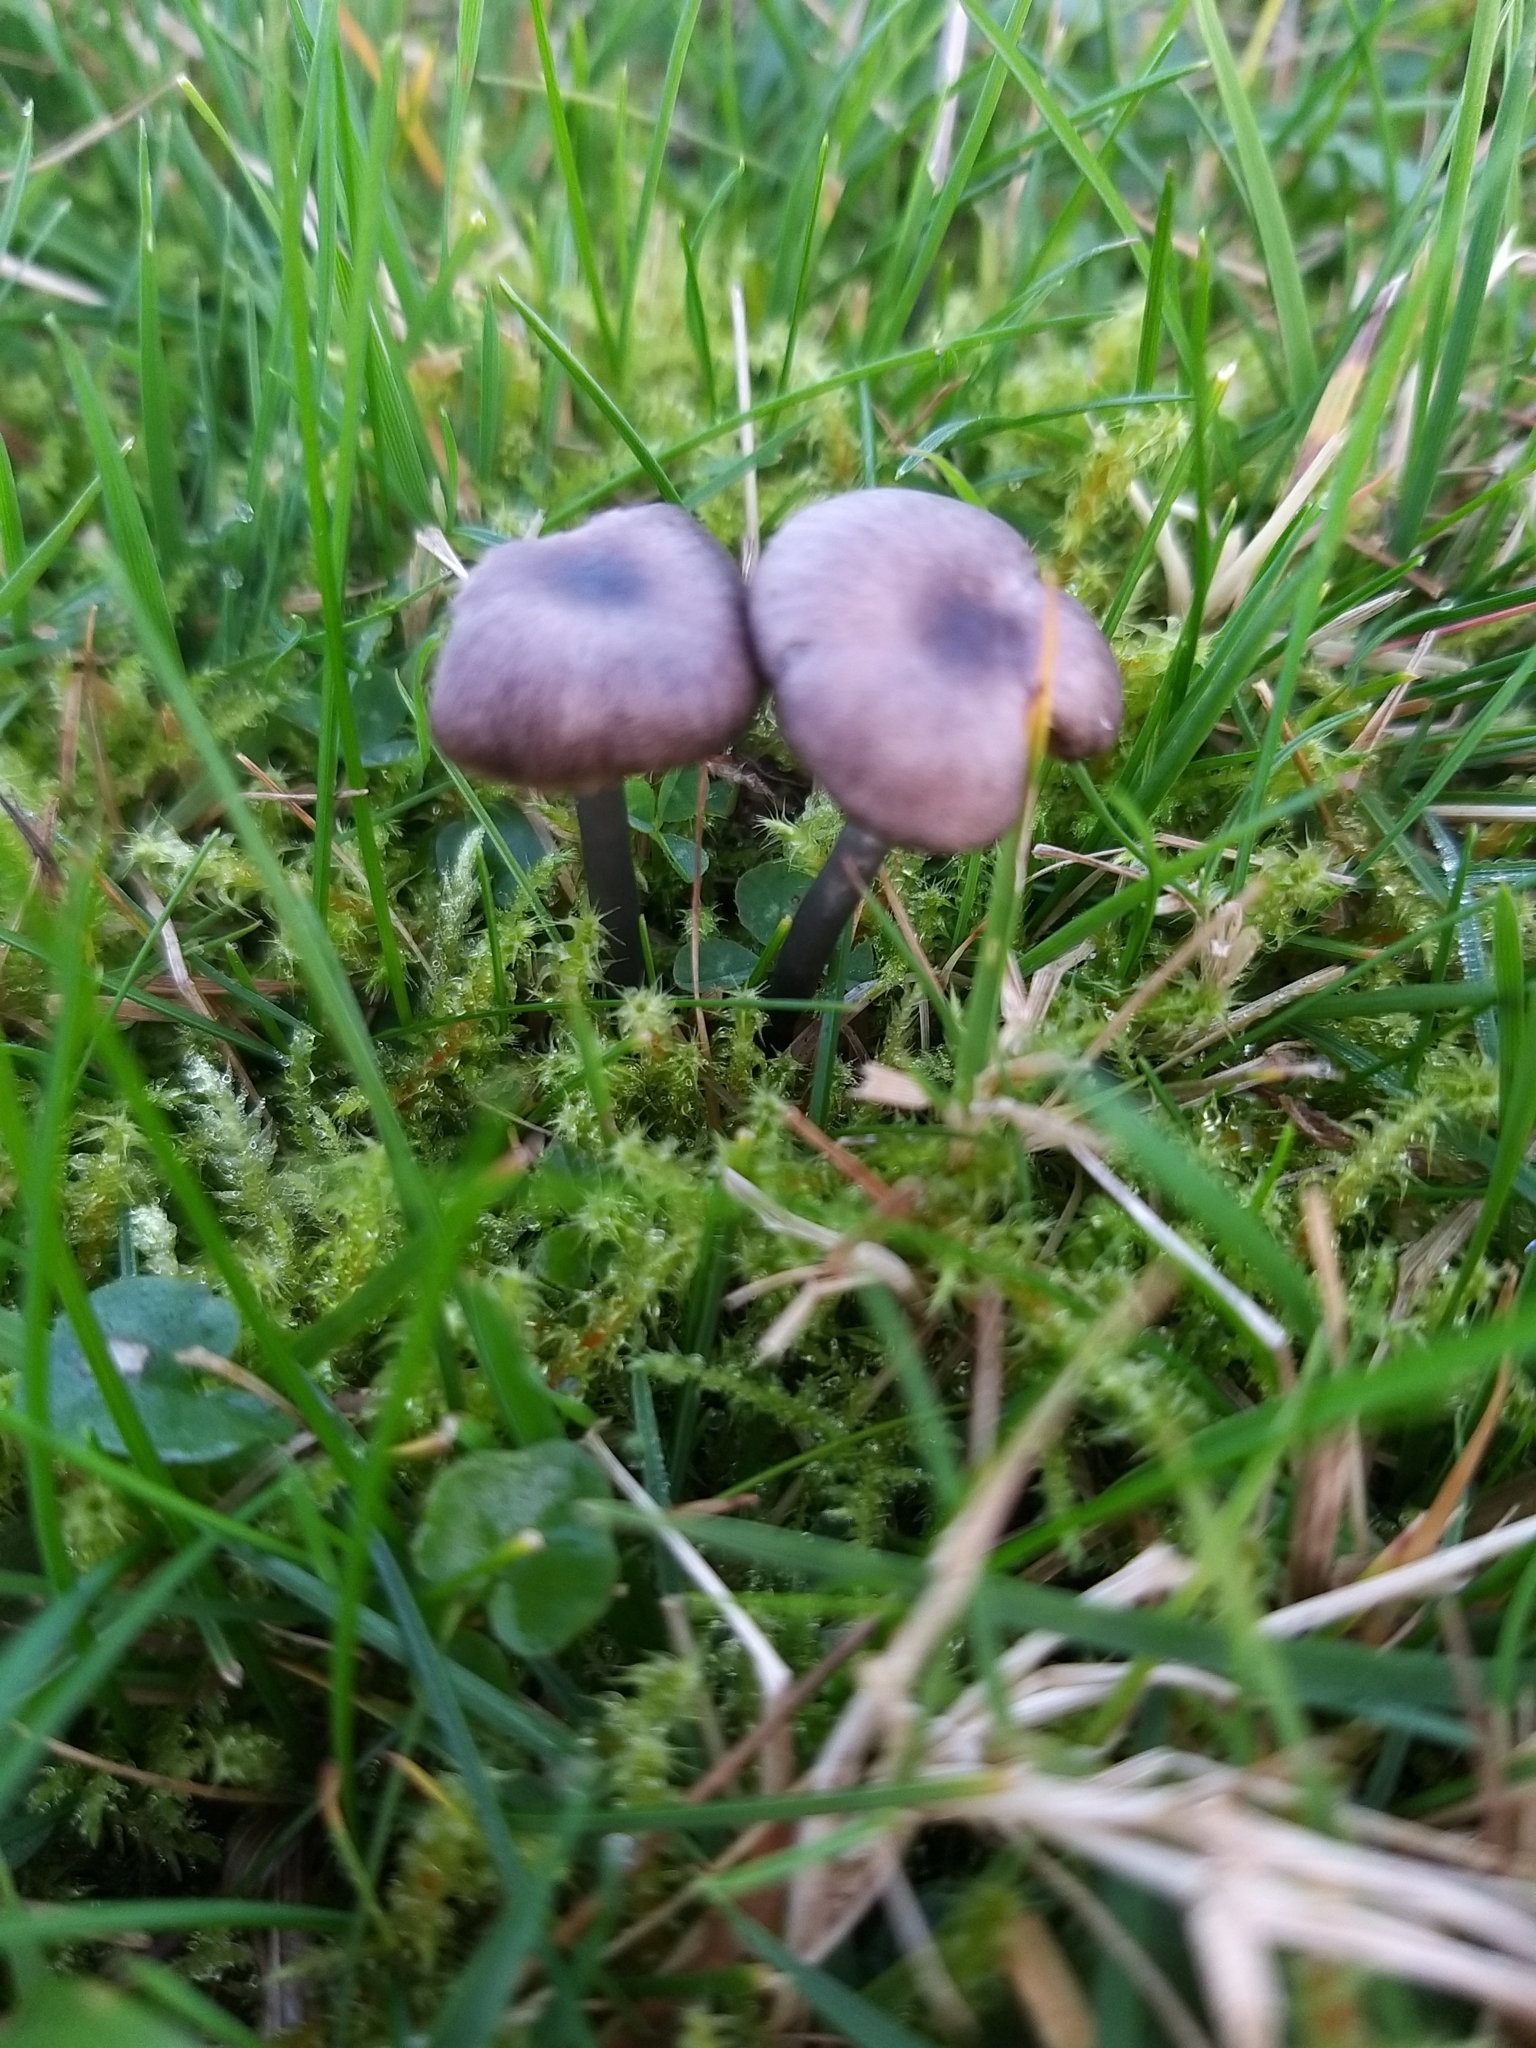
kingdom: Fungi
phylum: Basidiomycota
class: Agaricomycetes
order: Agaricales
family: Entolomataceae
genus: Entoloma
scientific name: Entoloma caeruleopolitum
